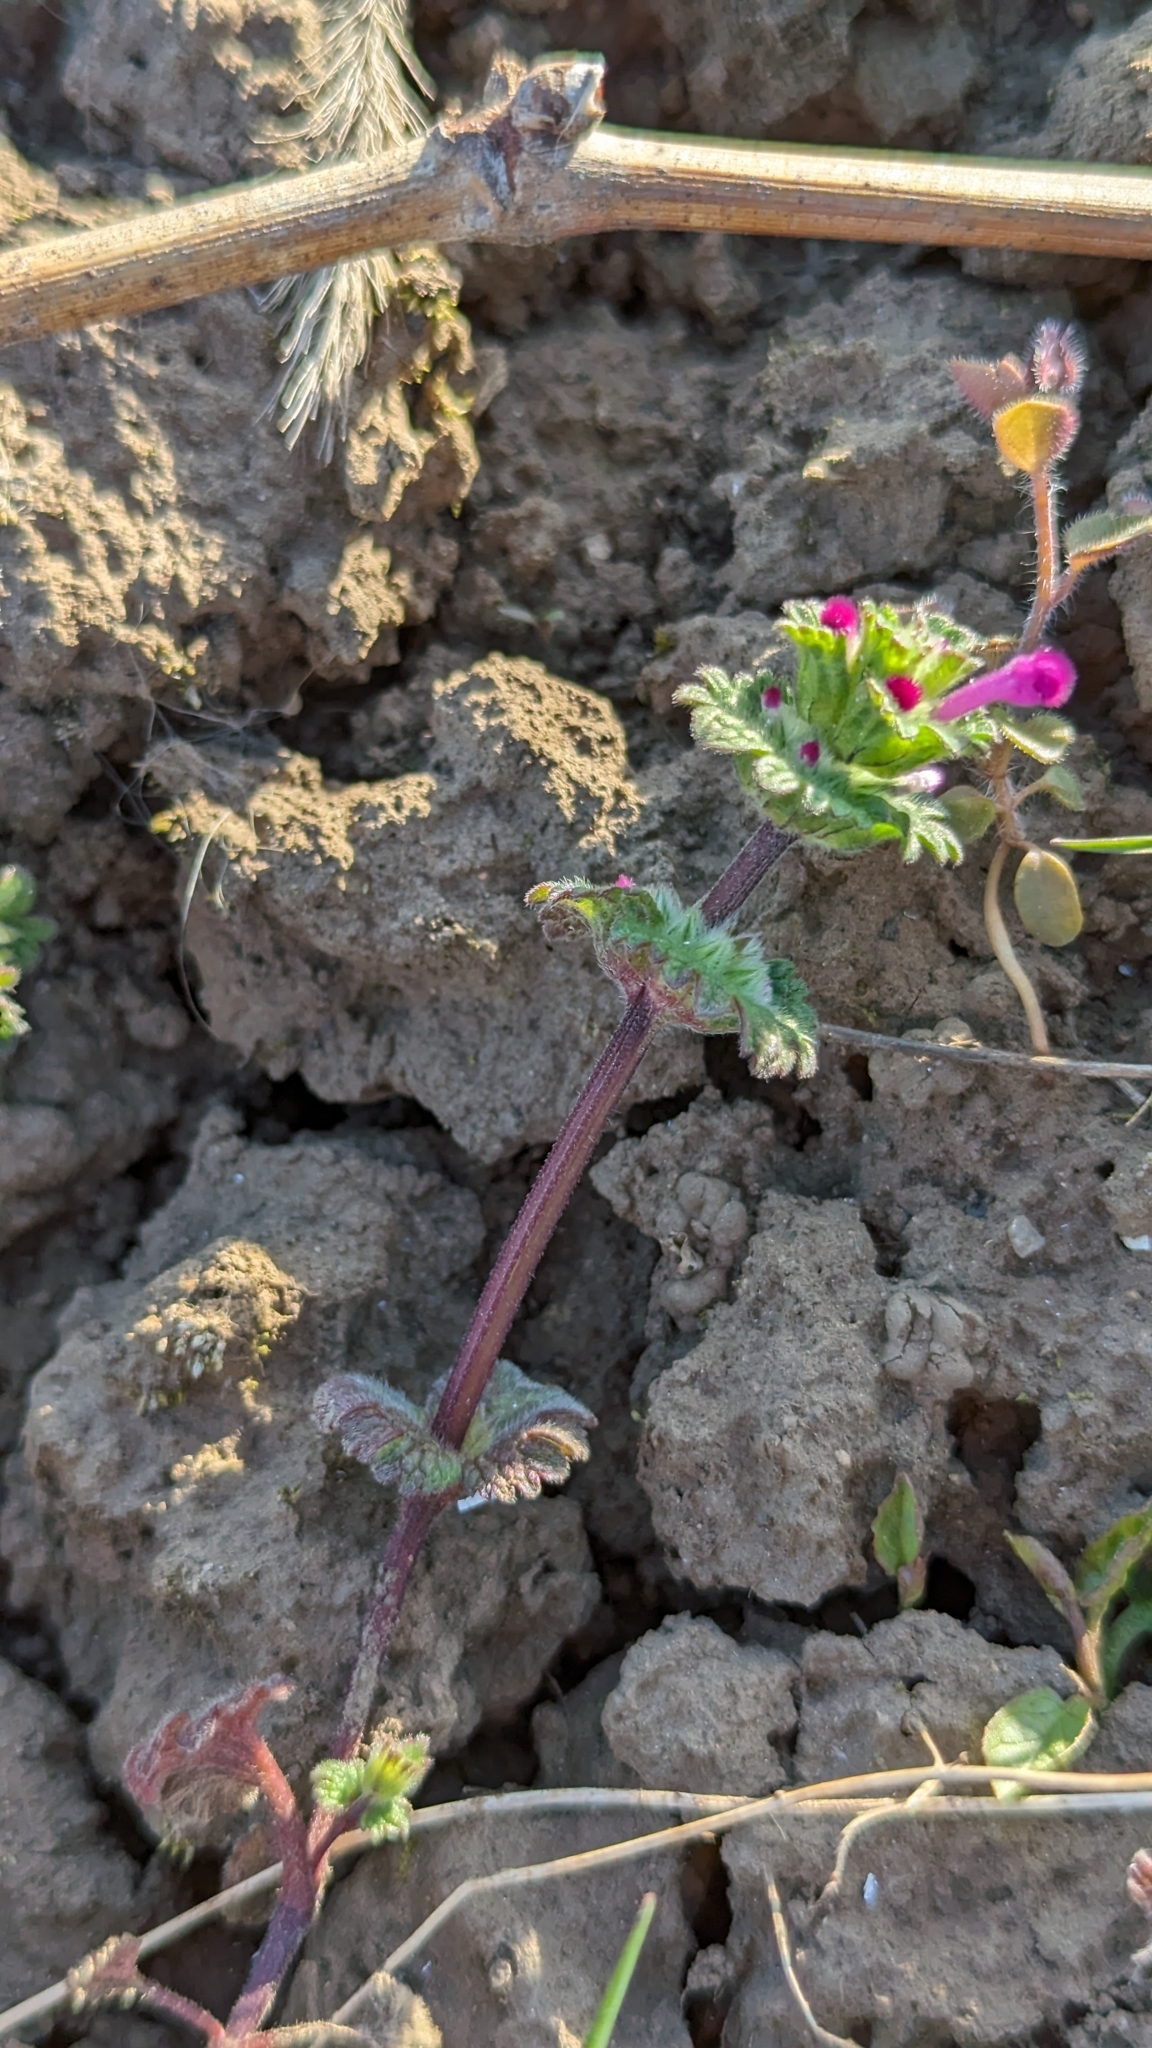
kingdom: Plantae
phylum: Tracheophyta
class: Magnoliopsida
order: Lamiales
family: Lamiaceae
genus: Lamium
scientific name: Lamium amplexicaule
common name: Henbit dead-nettle
